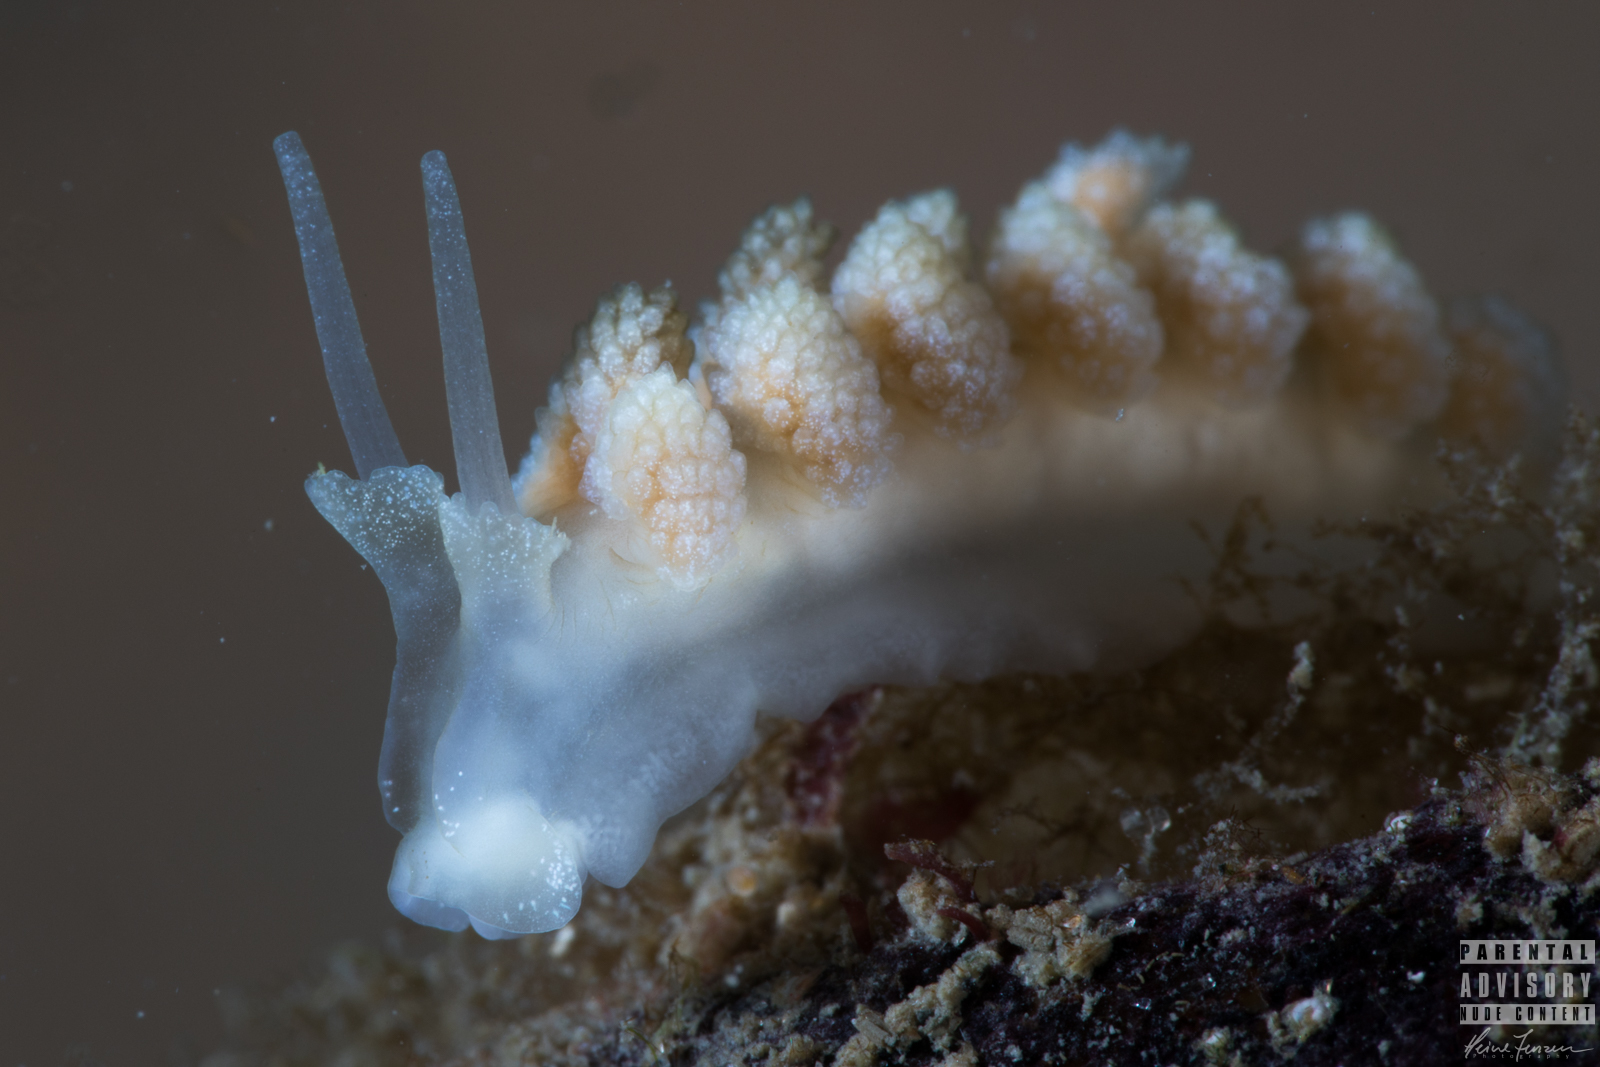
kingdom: Animalia
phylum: Mollusca
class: Gastropoda
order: Nudibranchia
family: Dotidae
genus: Doto
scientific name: Doto fragilis
